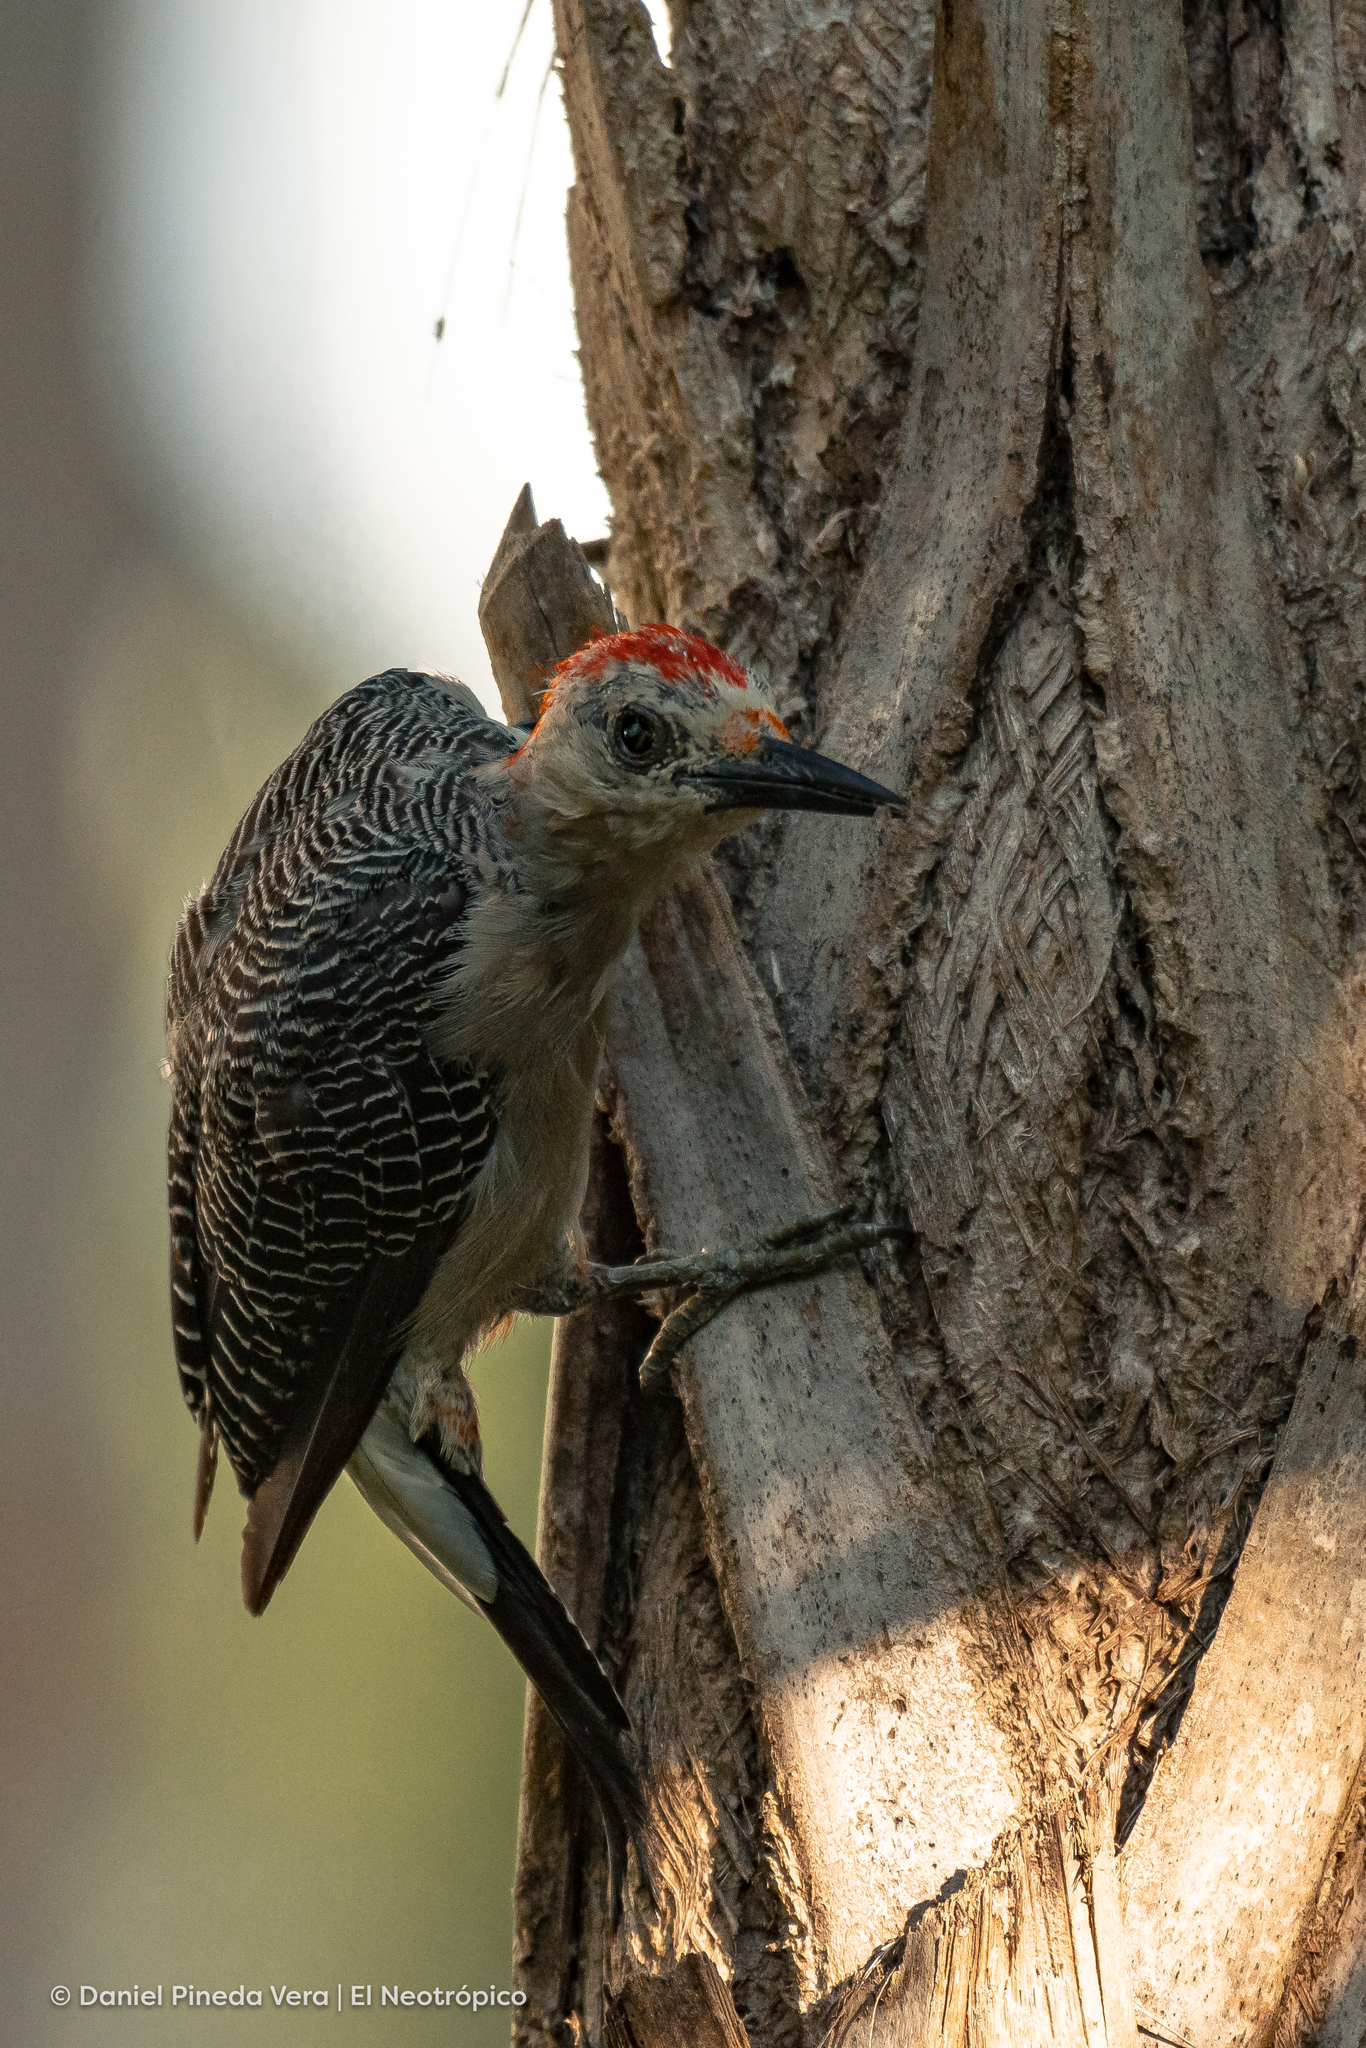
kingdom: Animalia
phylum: Chordata
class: Aves
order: Piciformes
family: Picidae
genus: Melanerpes
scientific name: Melanerpes aurifrons
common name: Golden-fronted woodpecker
